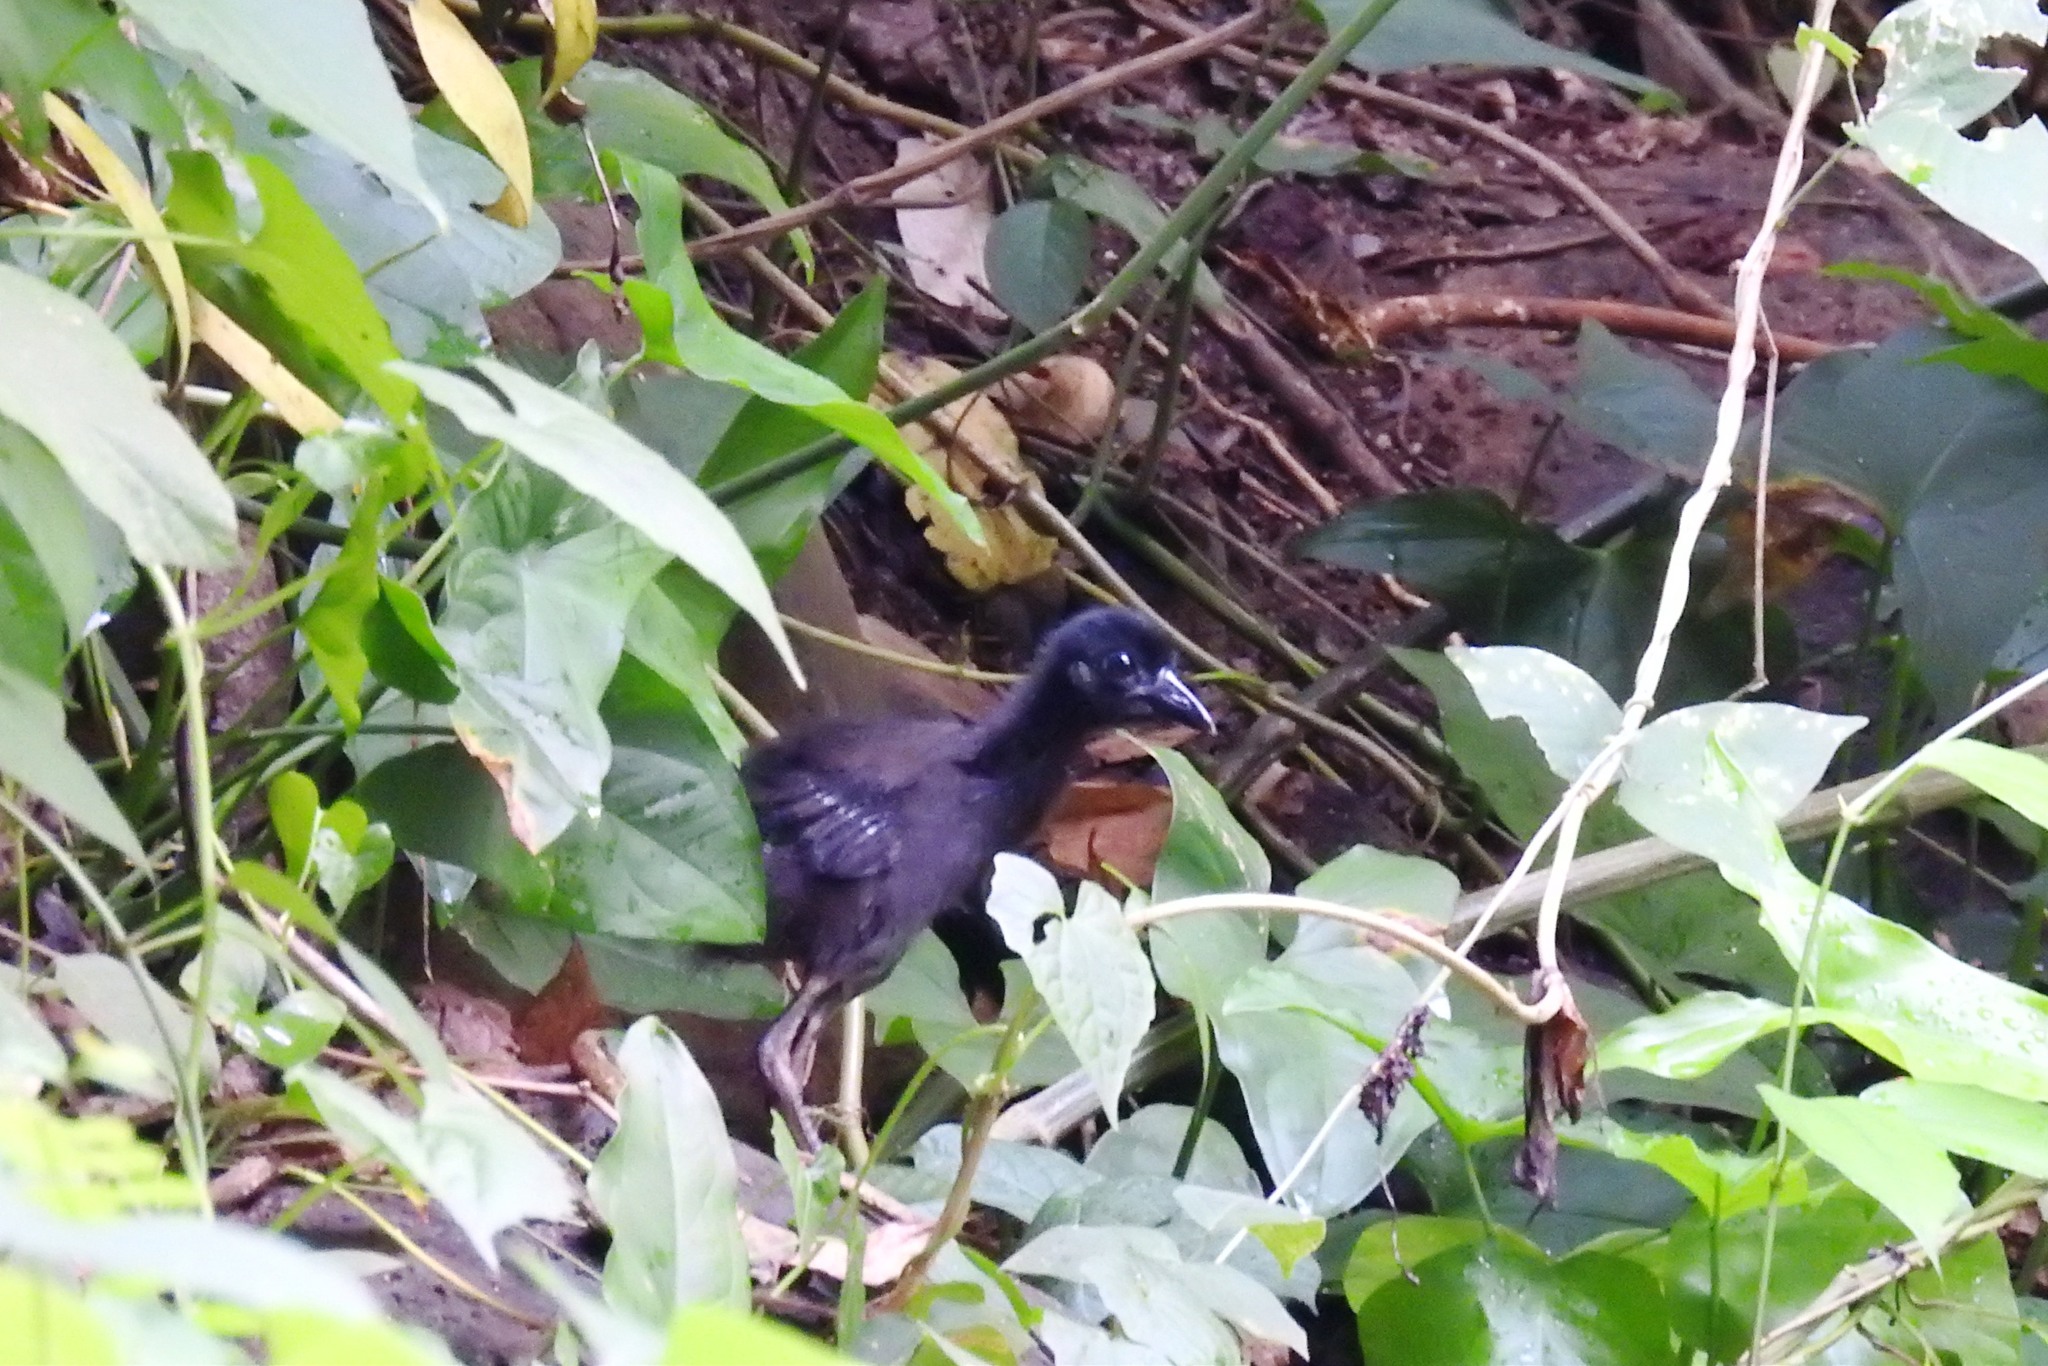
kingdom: Animalia
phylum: Chordata
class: Aves
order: Gruiformes
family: Rallidae
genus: Amaurornis
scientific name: Amaurornis olivacea
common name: Plain bush-hen
